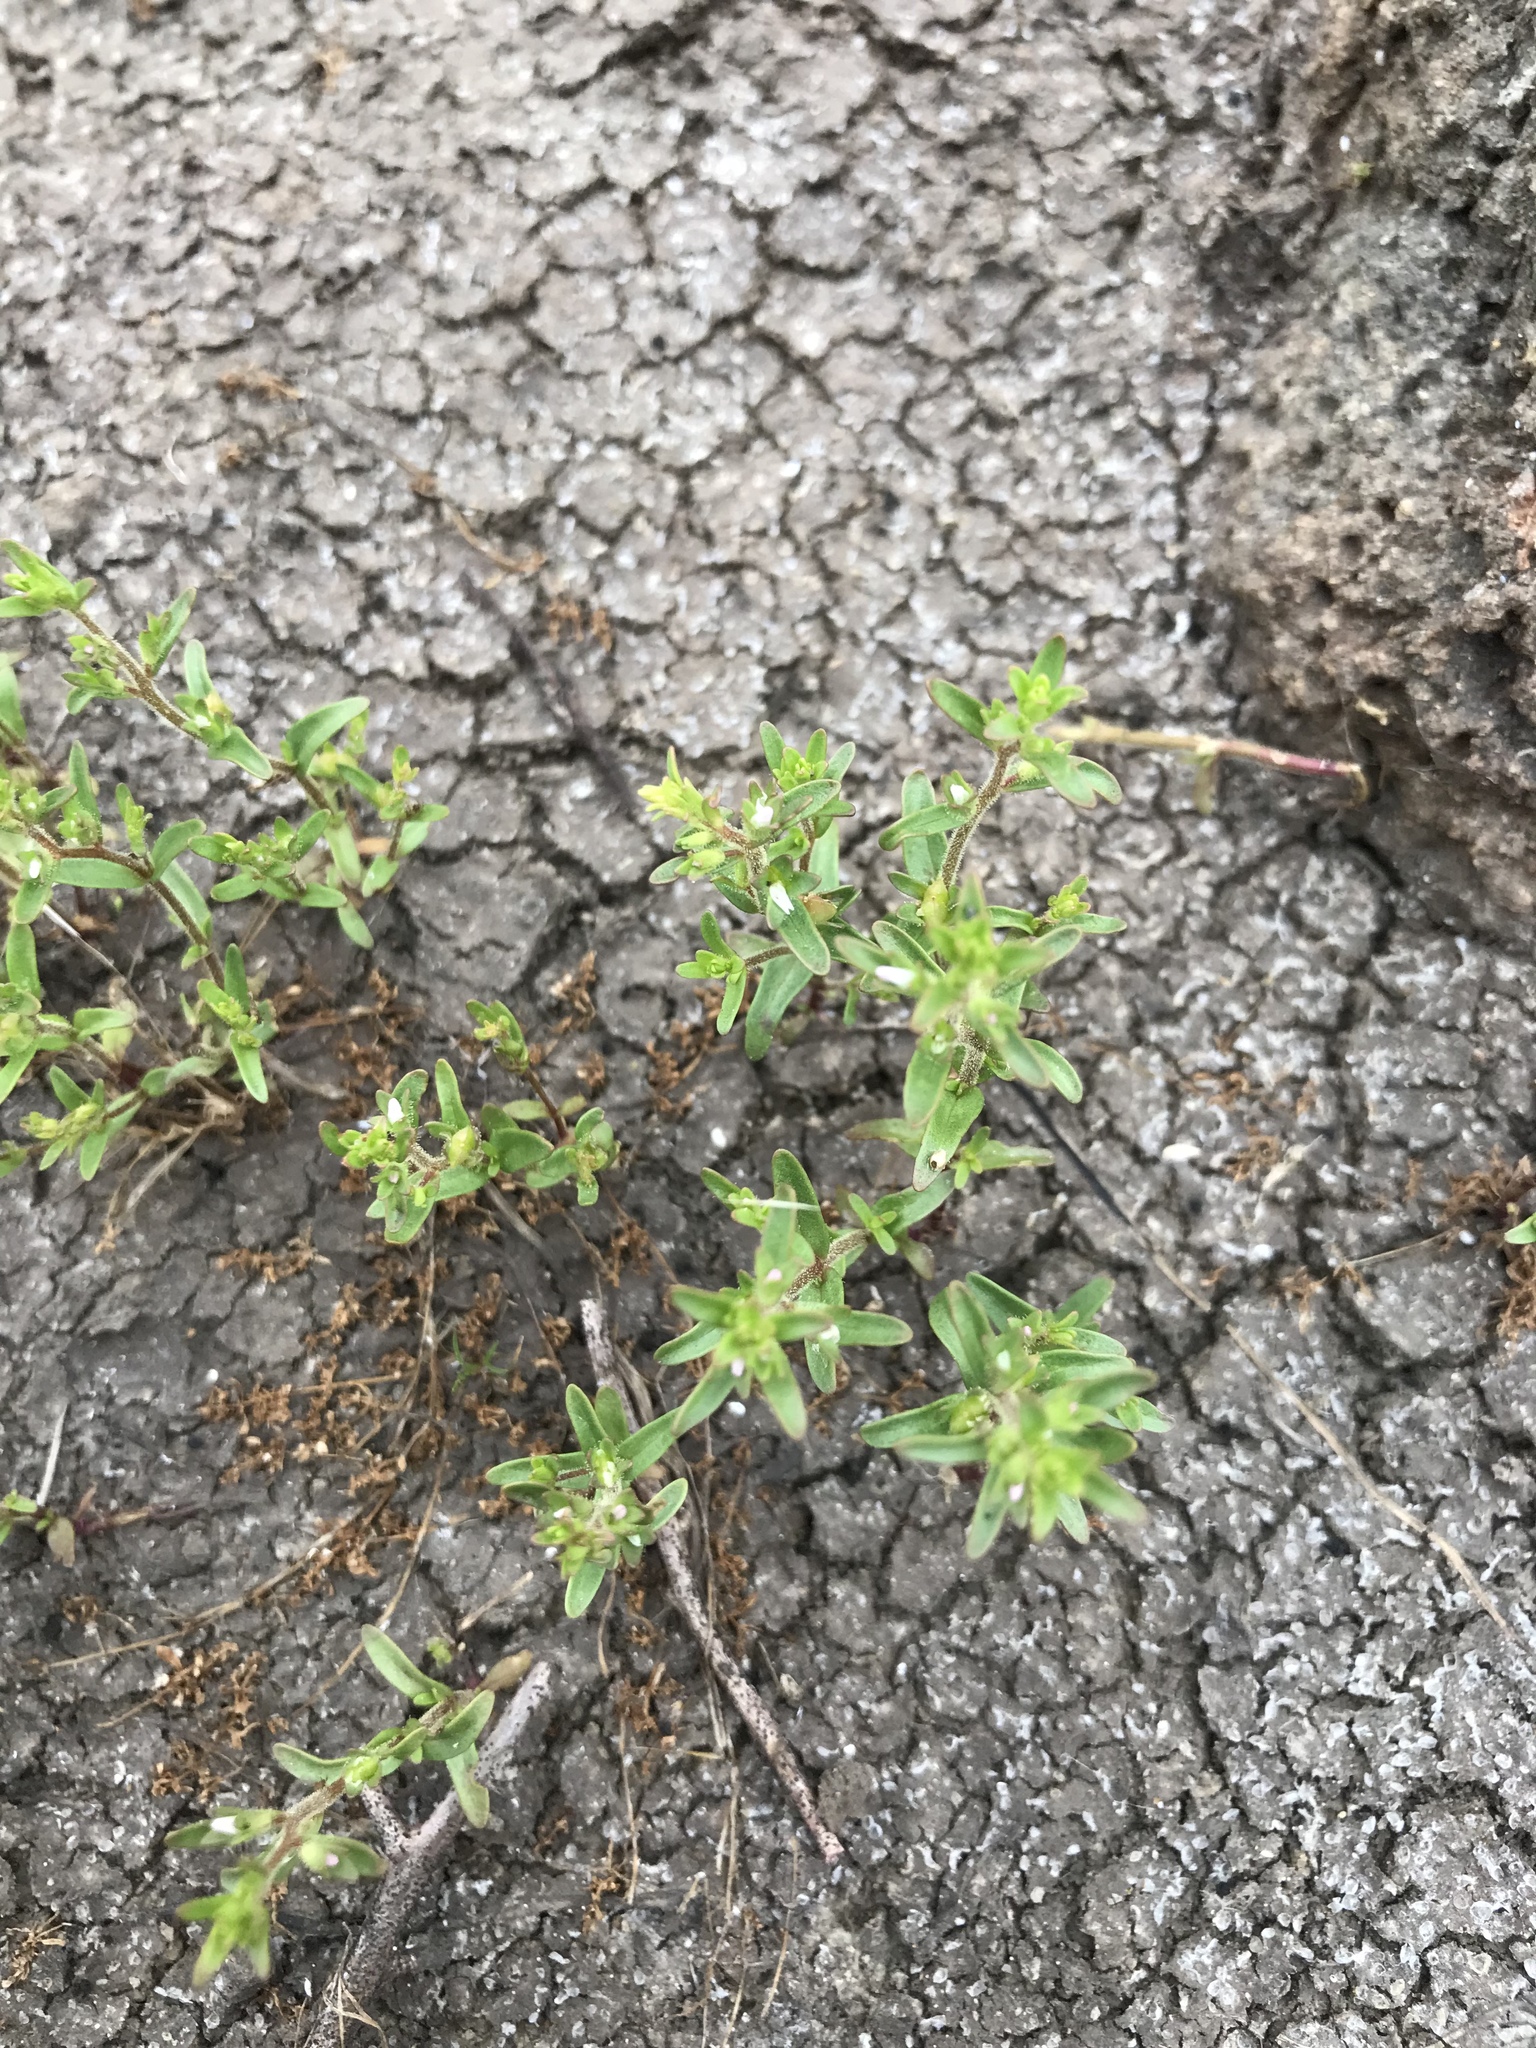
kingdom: Plantae
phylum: Tracheophyta
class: Magnoliopsida
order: Lamiales
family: Plantaginaceae
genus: Veronica
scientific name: Veronica peregrina
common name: Neckweed
